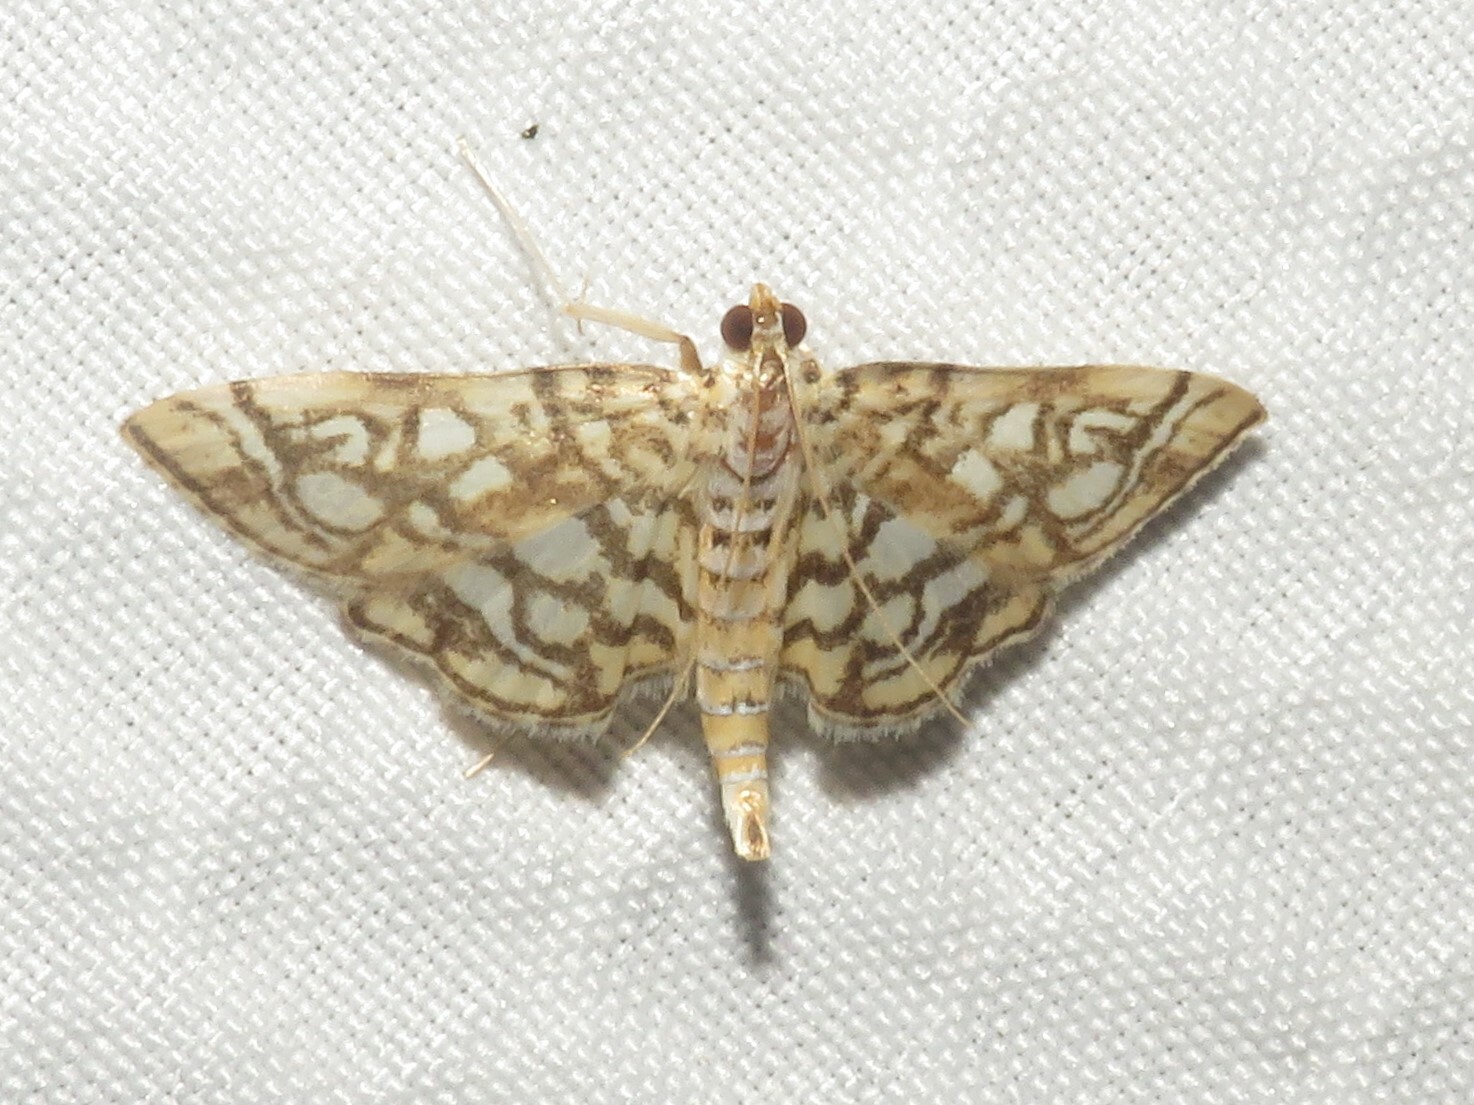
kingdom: Animalia
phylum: Arthropoda
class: Insecta
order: Lepidoptera
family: Crambidae
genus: Lygropia
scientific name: Lygropia rivulalis
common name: Bog lygropia moth
